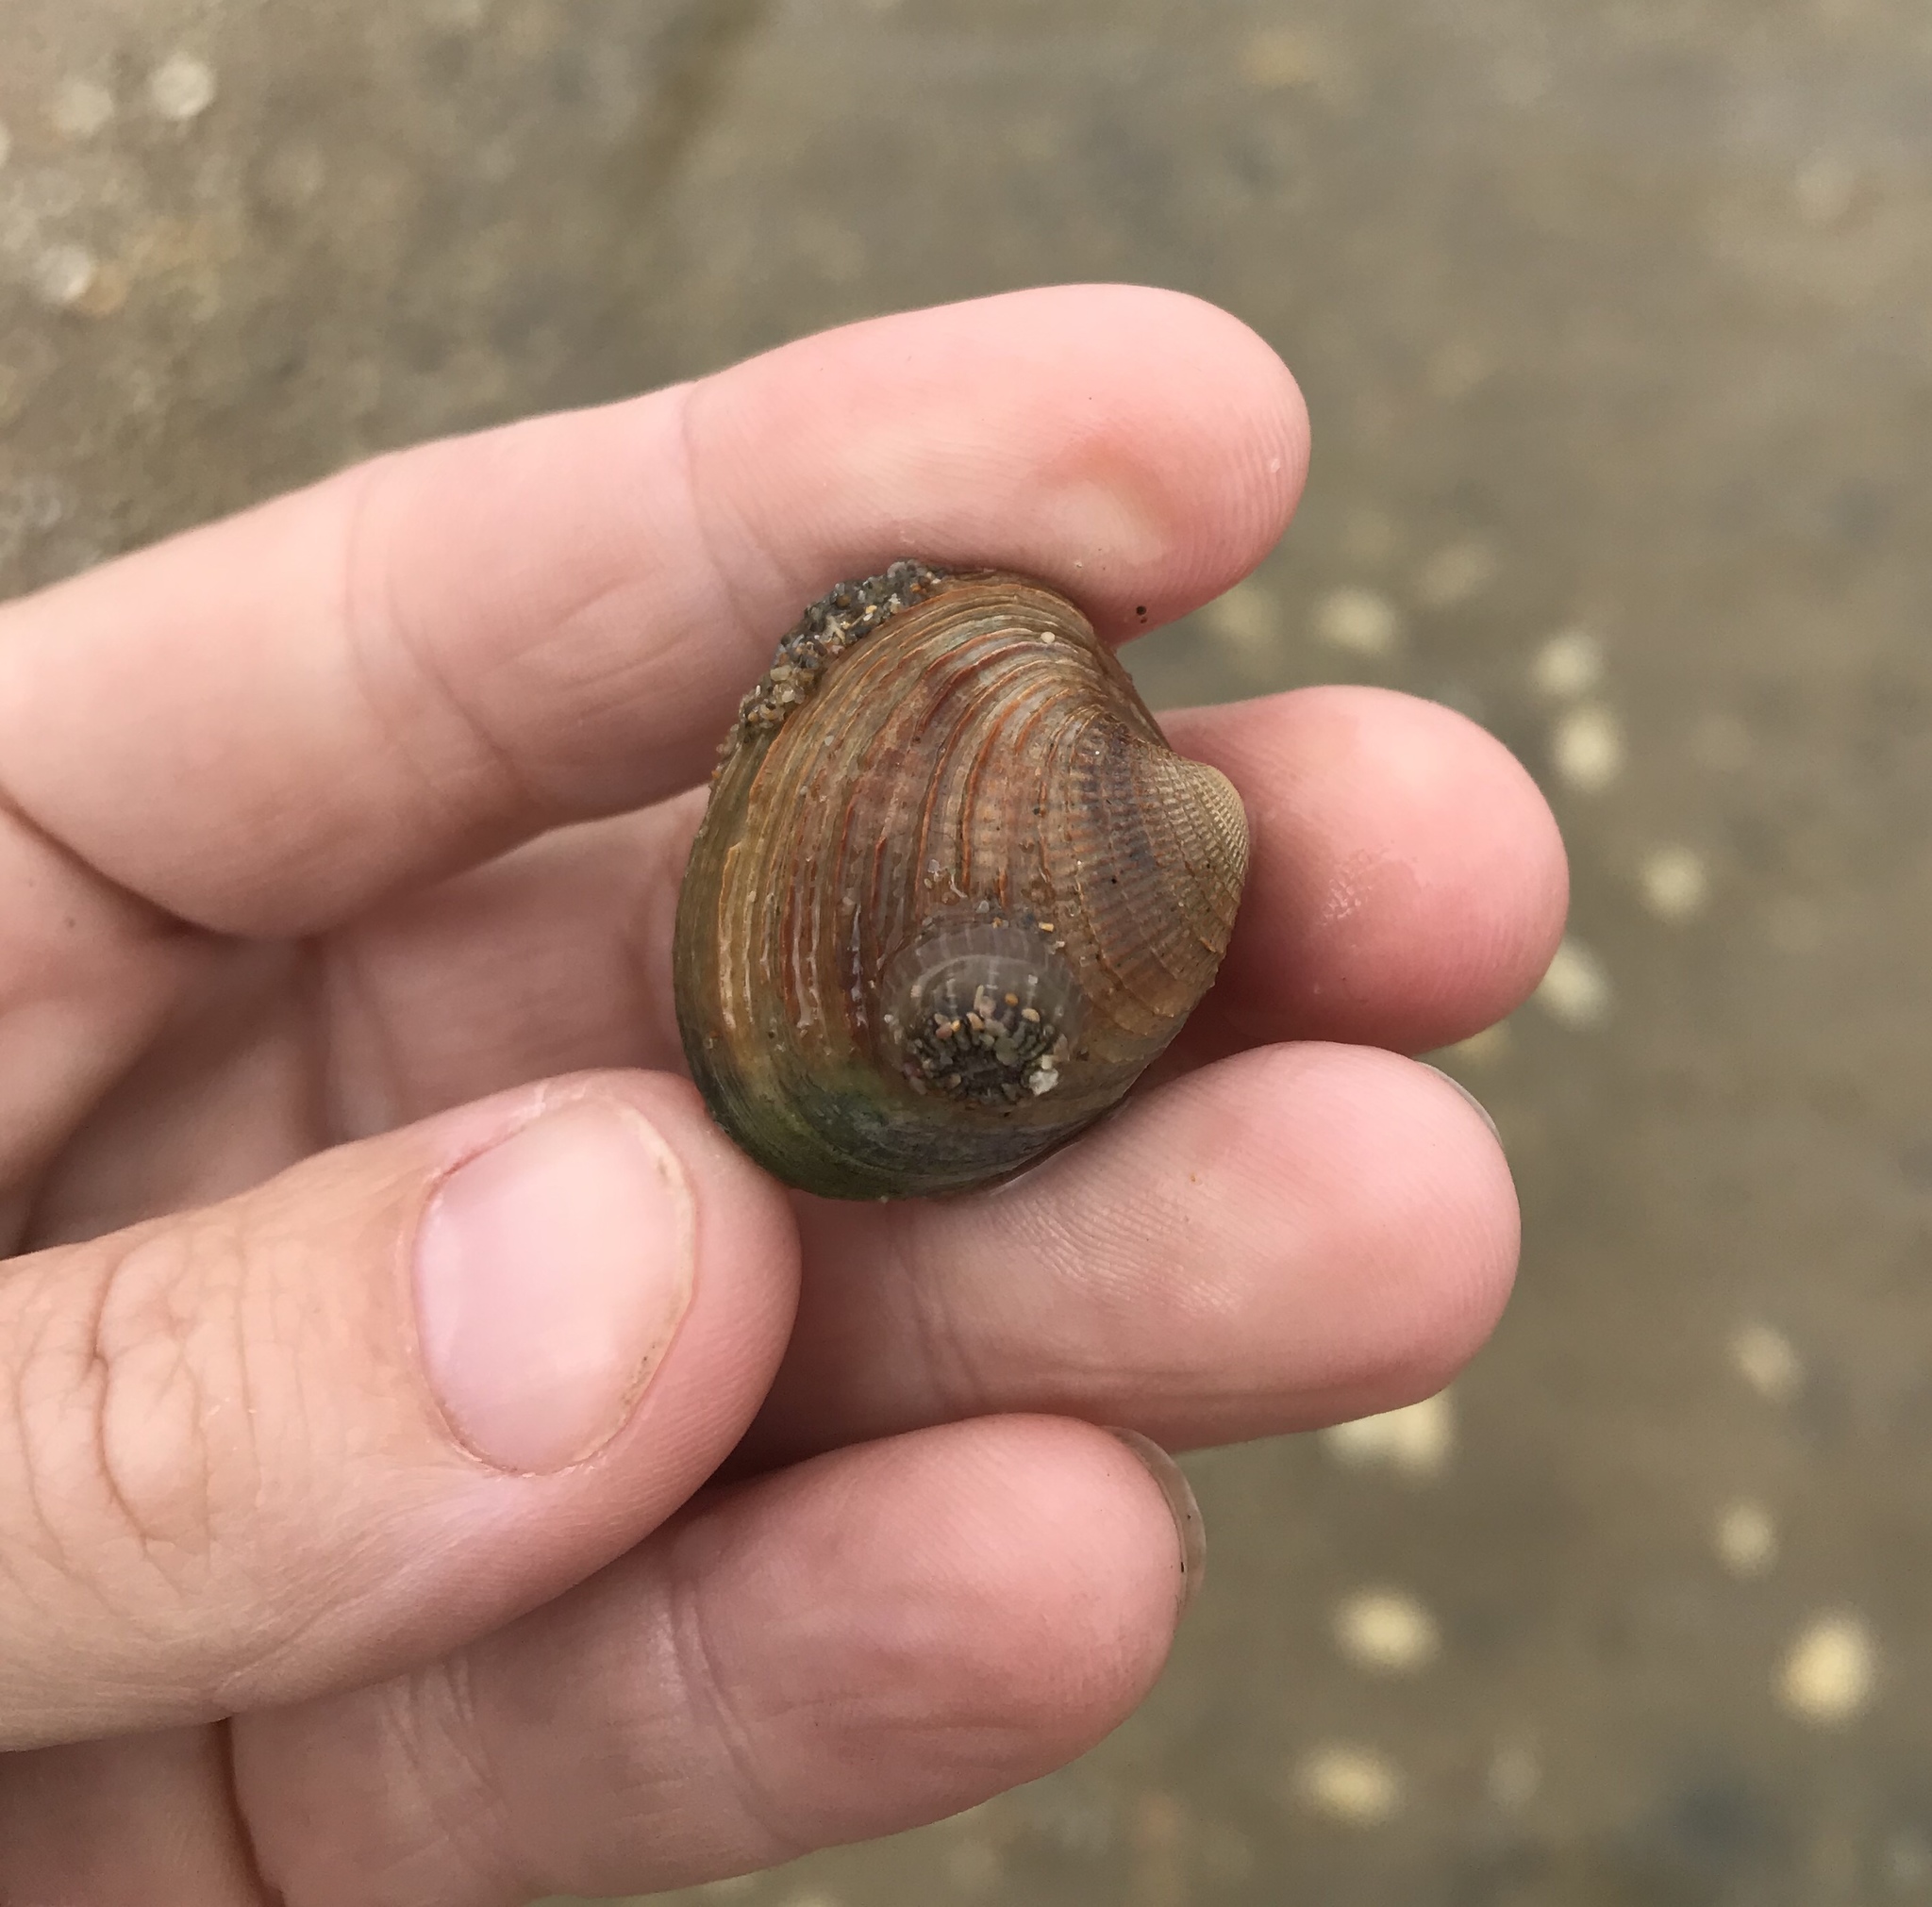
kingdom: Animalia
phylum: Mollusca
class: Bivalvia
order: Venerida
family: Veneridae
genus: Austrovenus
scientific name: Austrovenus stutchburyi
